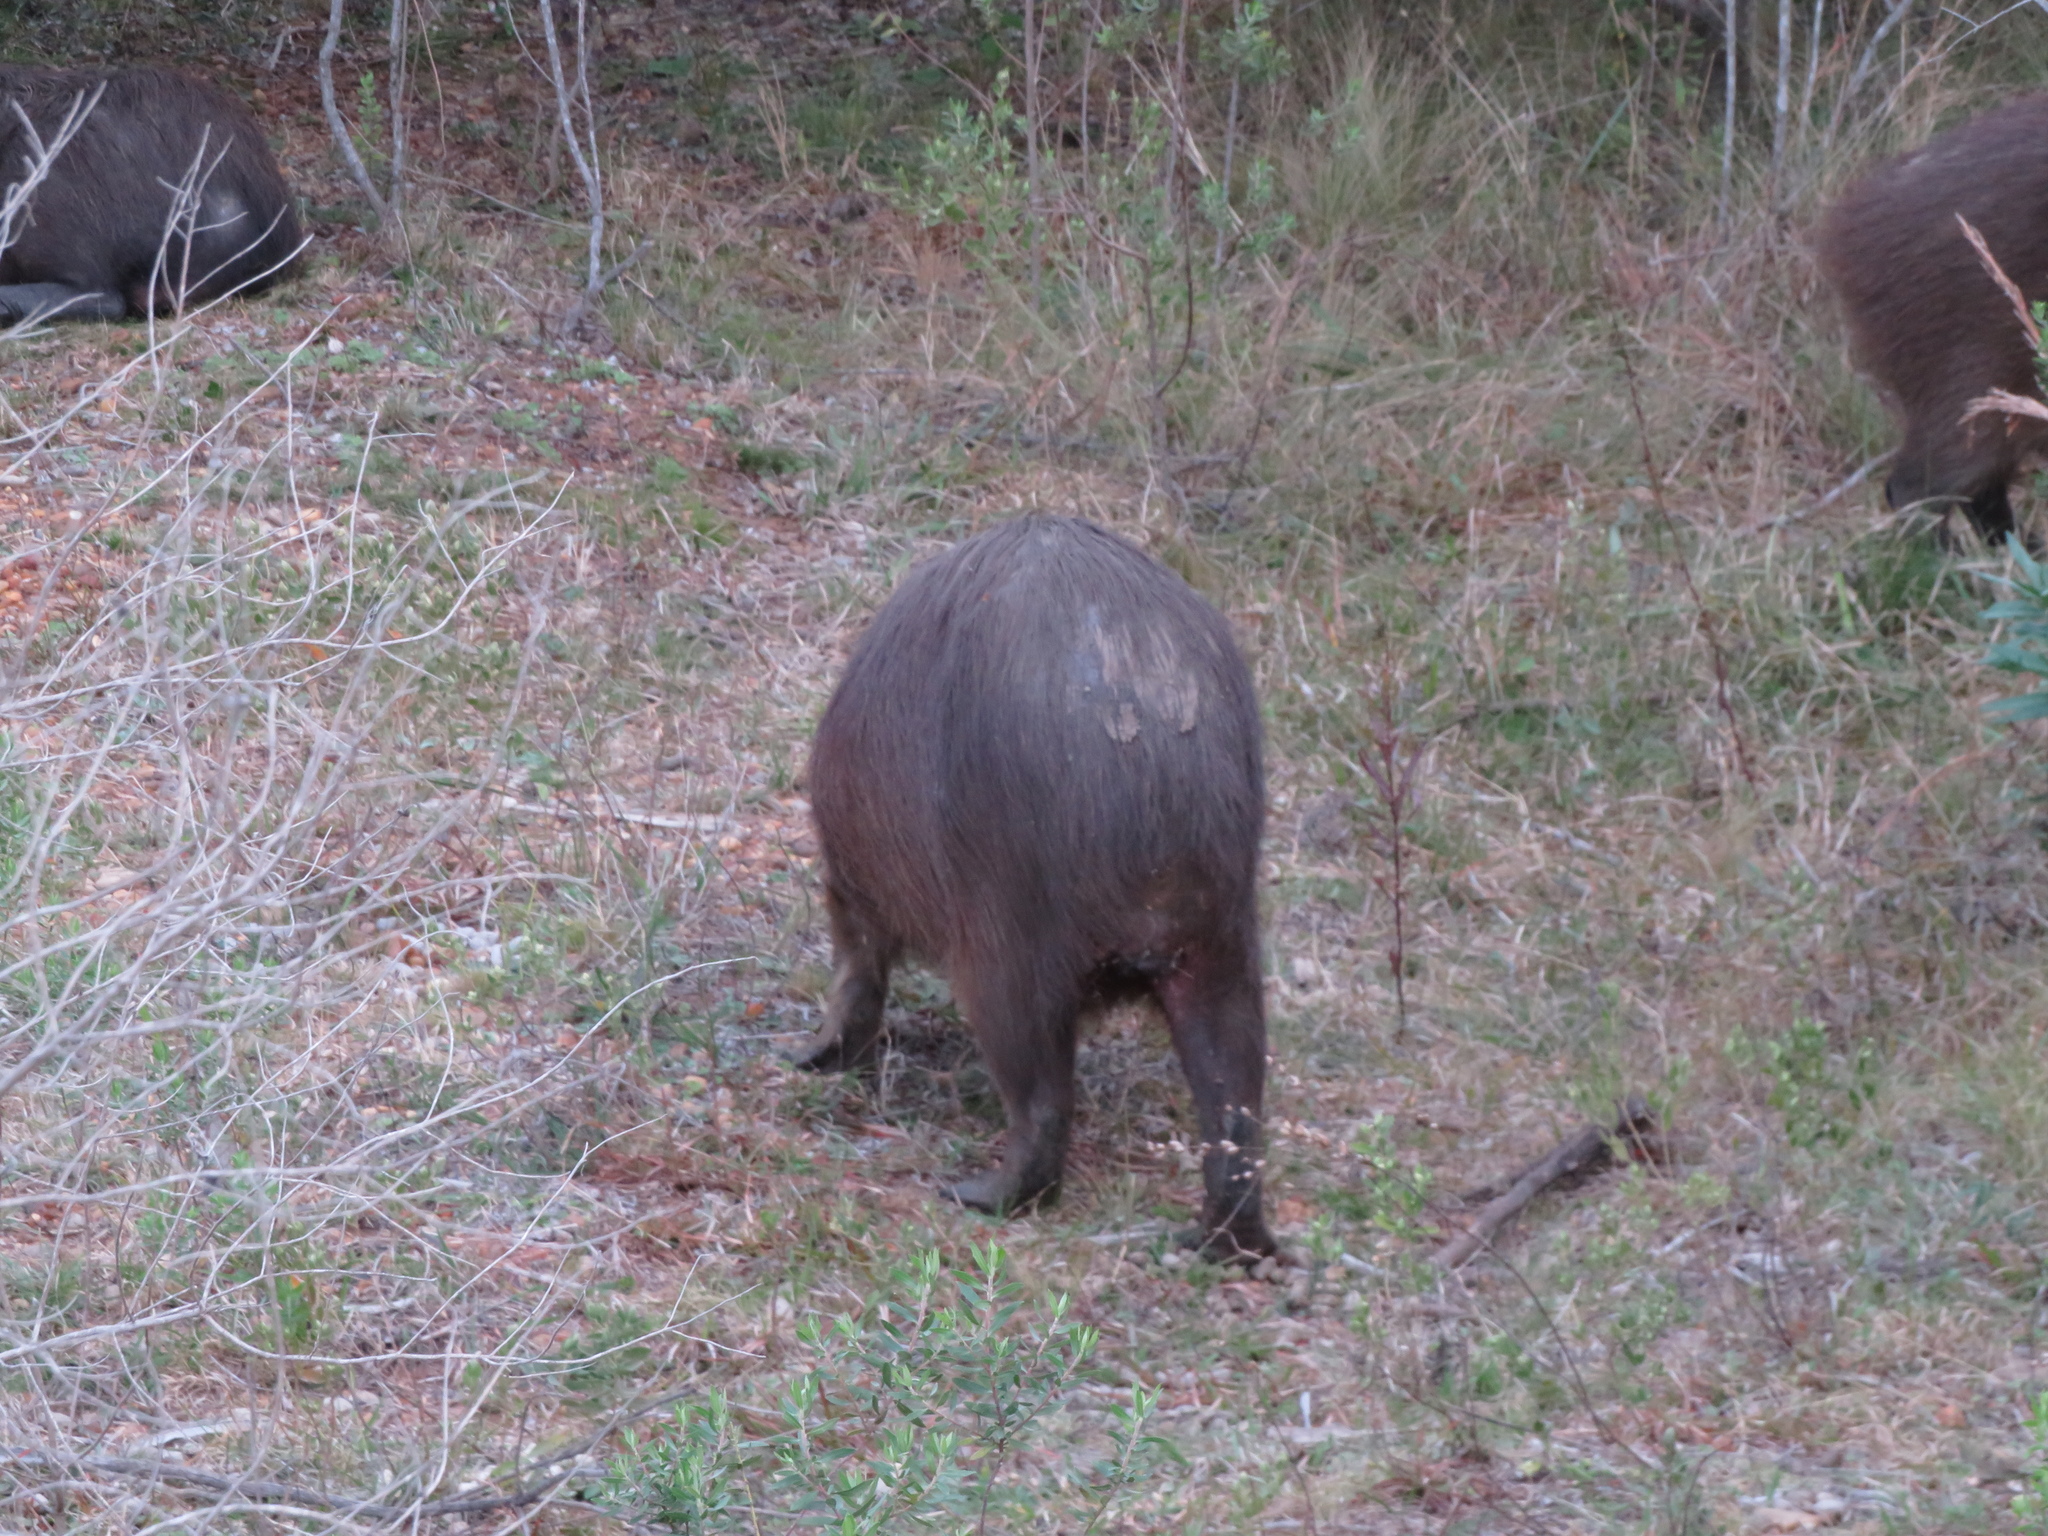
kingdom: Animalia
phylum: Chordata
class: Mammalia
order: Rodentia
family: Caviidae
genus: Hydrochoerus
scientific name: Hydrochoerus hydrochaeris
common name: Capybara
